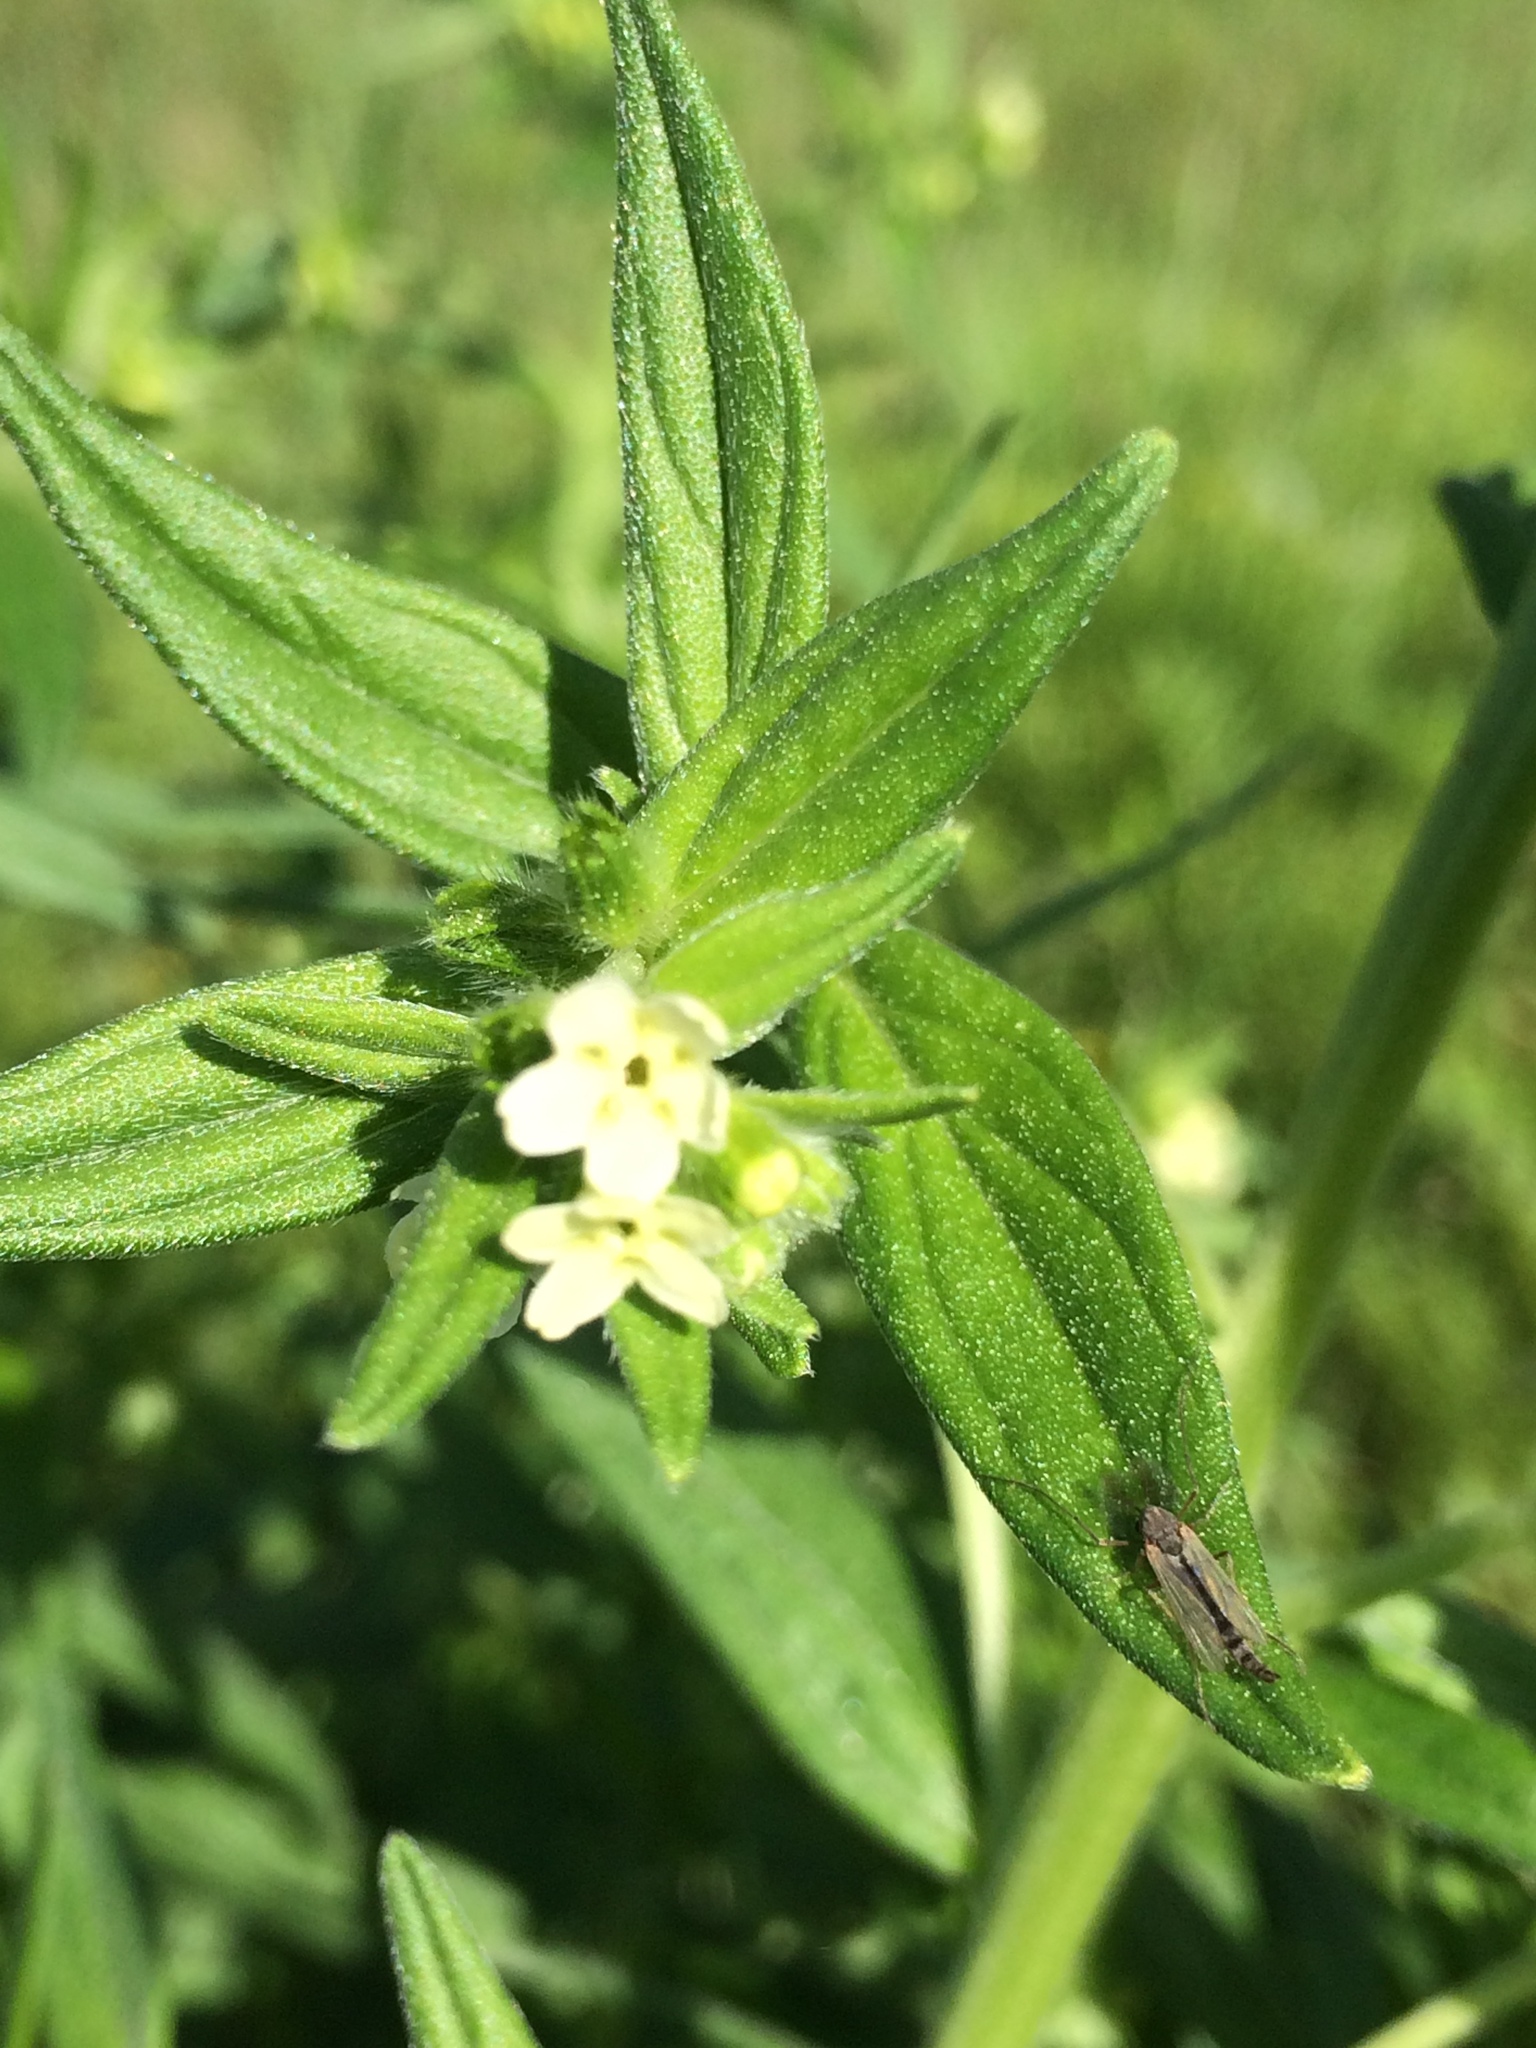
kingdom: Plantae
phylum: Tracheophyta
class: Magnoliopsida
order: Boraginales
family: Boraginaceae
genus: Lithospermum
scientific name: Lithospermum officinale
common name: Common gromwell
